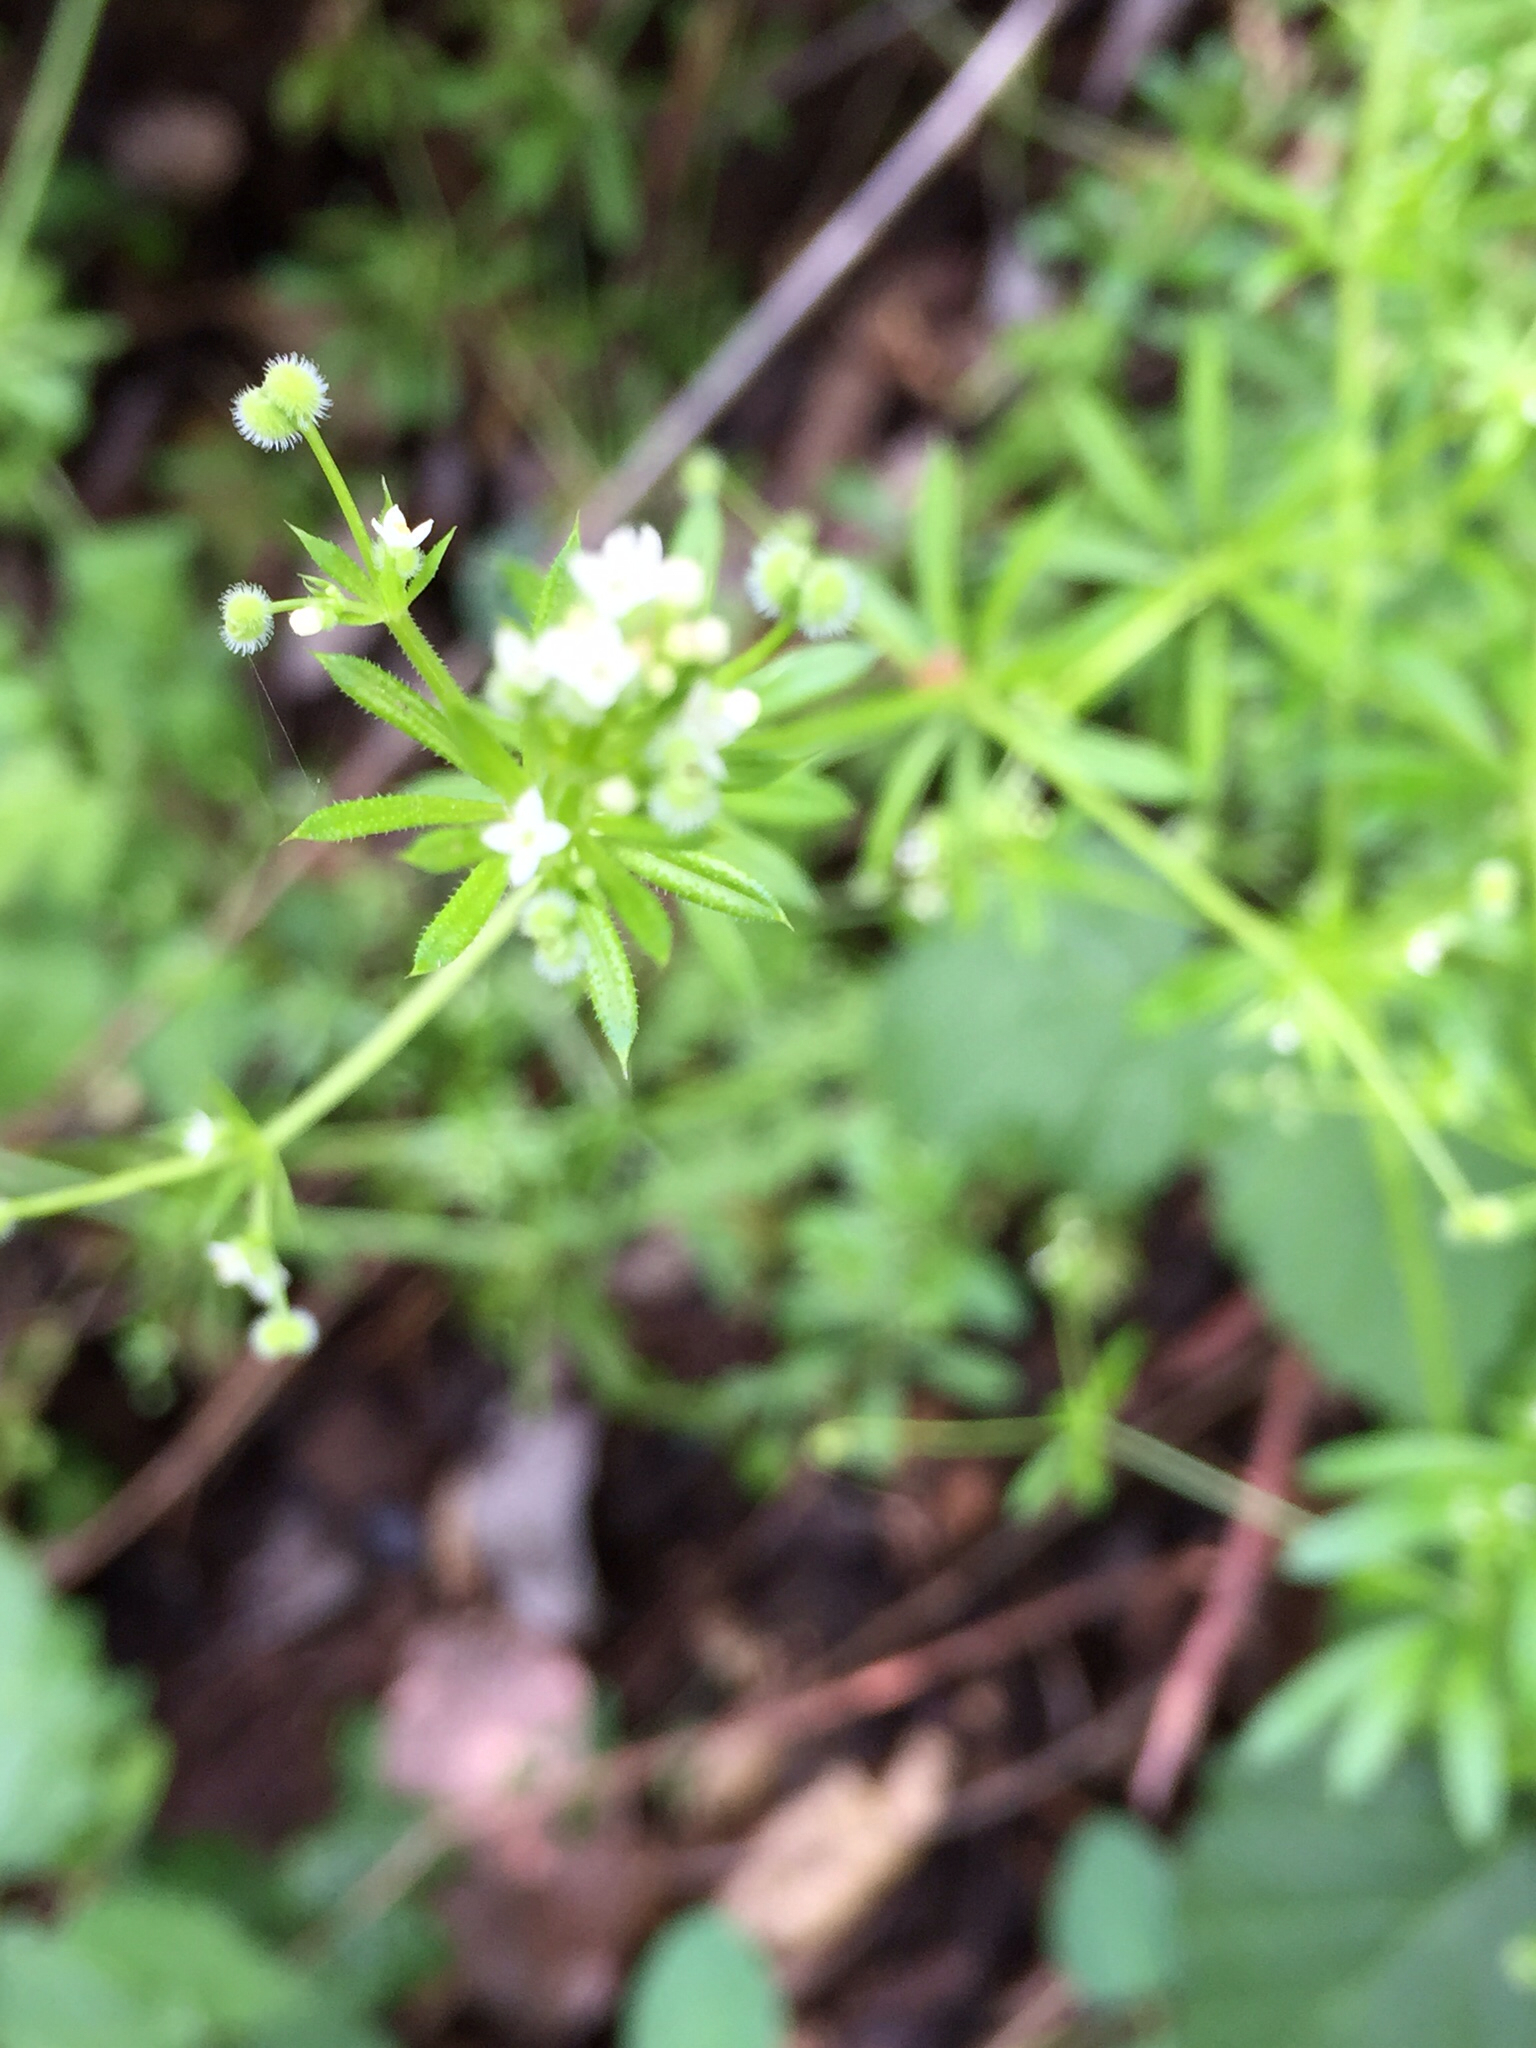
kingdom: Plantae
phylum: Tracheophyta
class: Magnoliopsida
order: Gentianales
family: Rubiaceae
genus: Galium
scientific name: Galium aparine
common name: Cleavers
